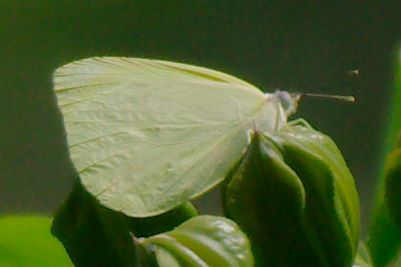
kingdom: Animalia
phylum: Arthropoda
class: Insecta
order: Lepidoptera
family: Pieridae
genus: Kricogonia
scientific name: Kricogonia lyside
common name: Guayacan sulphur,
